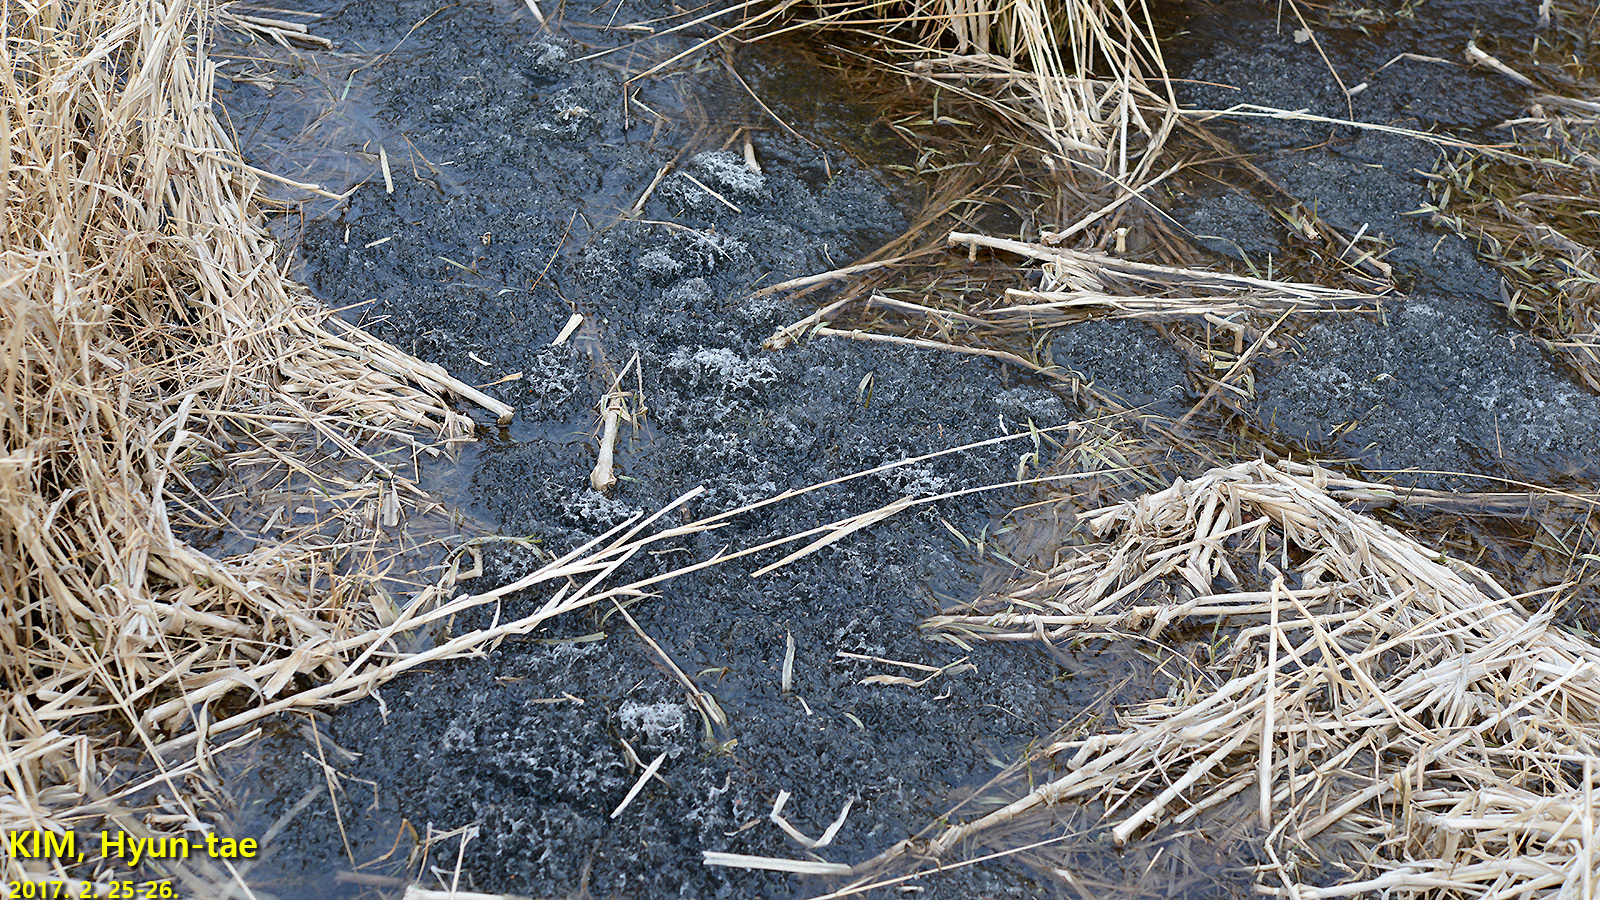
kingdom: Animalia
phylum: Chordata
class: Amphibia
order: Anura
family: Ranidae
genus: Rana
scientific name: Rana uenoi
